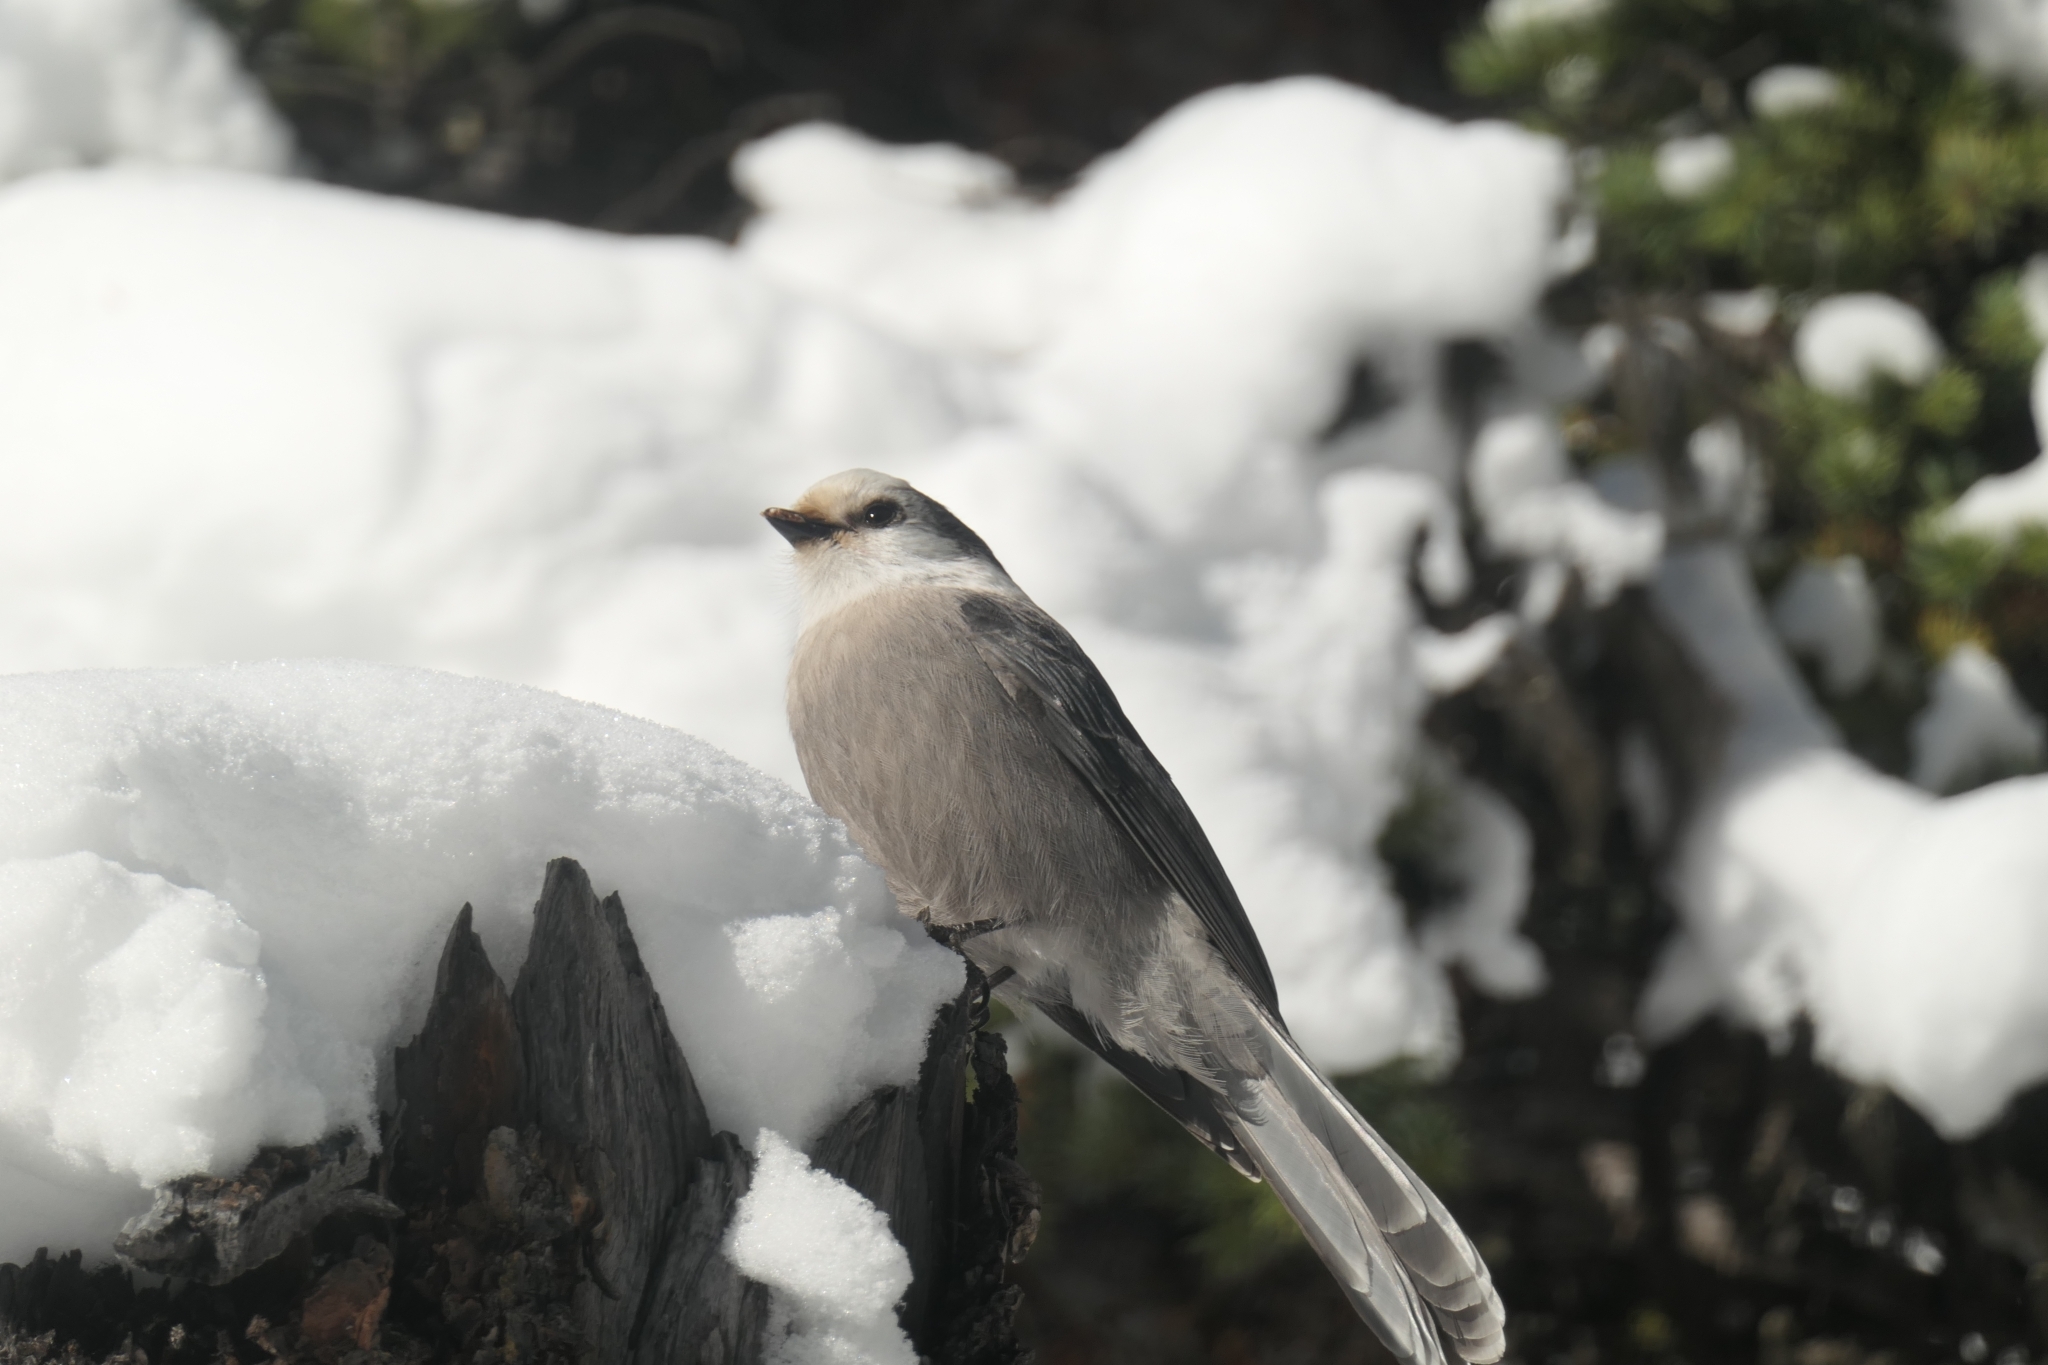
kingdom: Animalia
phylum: Chordata
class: Aves
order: Passeriformes
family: Corvidae
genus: Perisoreus
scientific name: Perisoreus canadensis
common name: Gray jay
